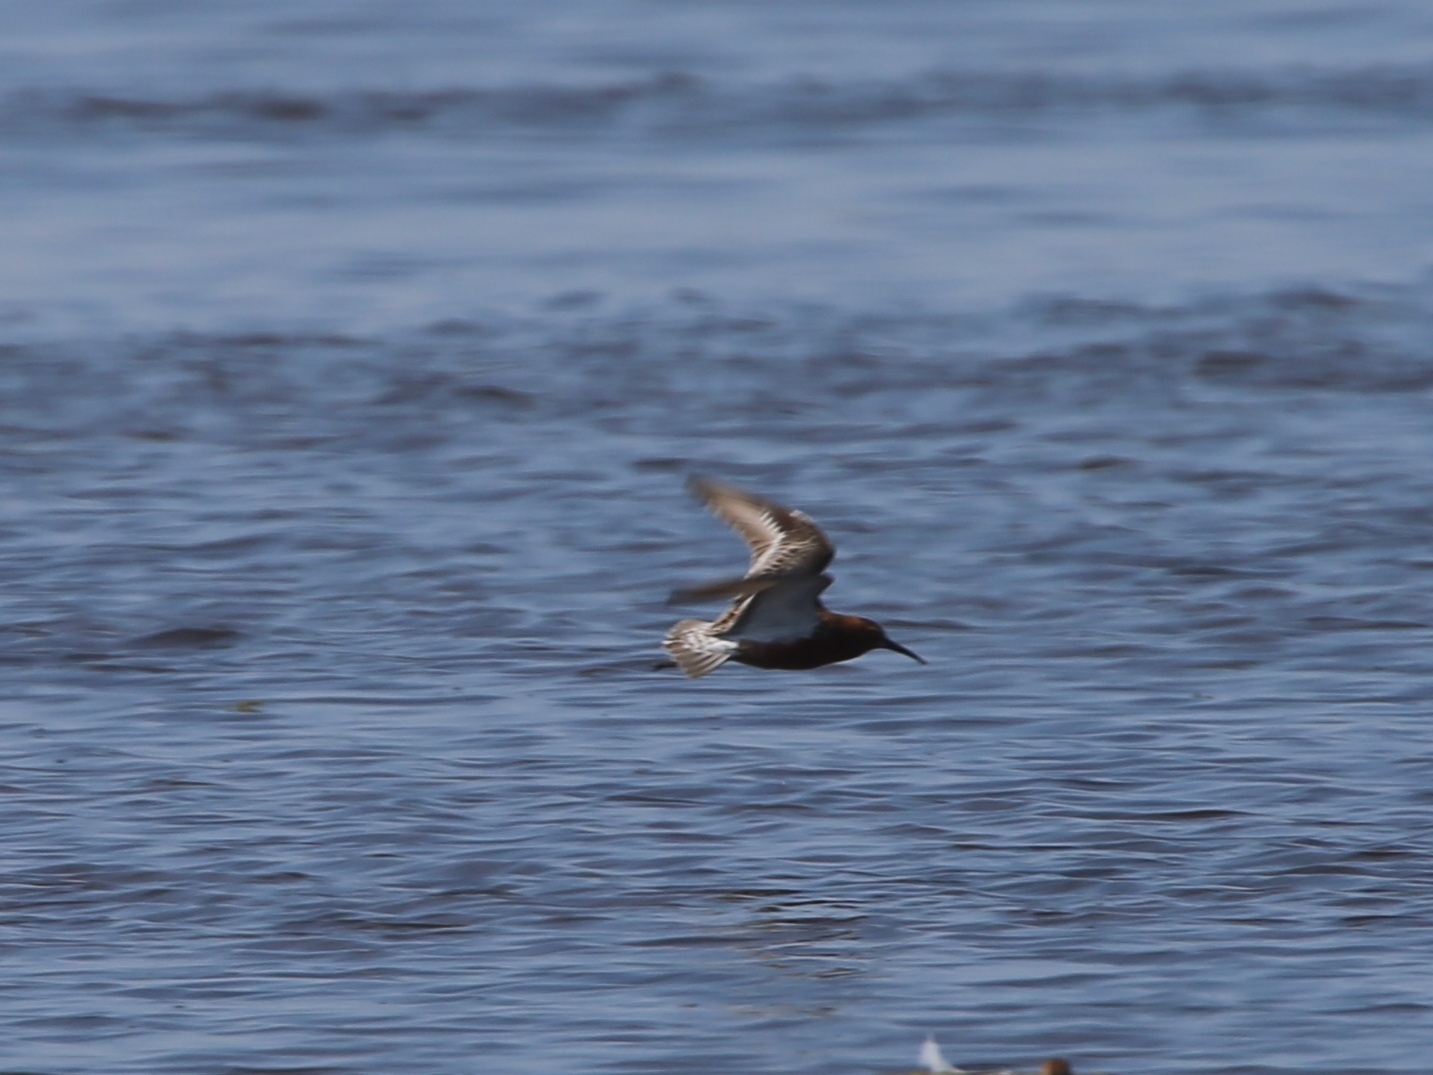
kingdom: Animalia
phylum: Chordata
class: Aves
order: Charadriiformes
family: Scolopacidae
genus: Calidris
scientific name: Calidris ferruginea
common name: Curlew sandpiper
